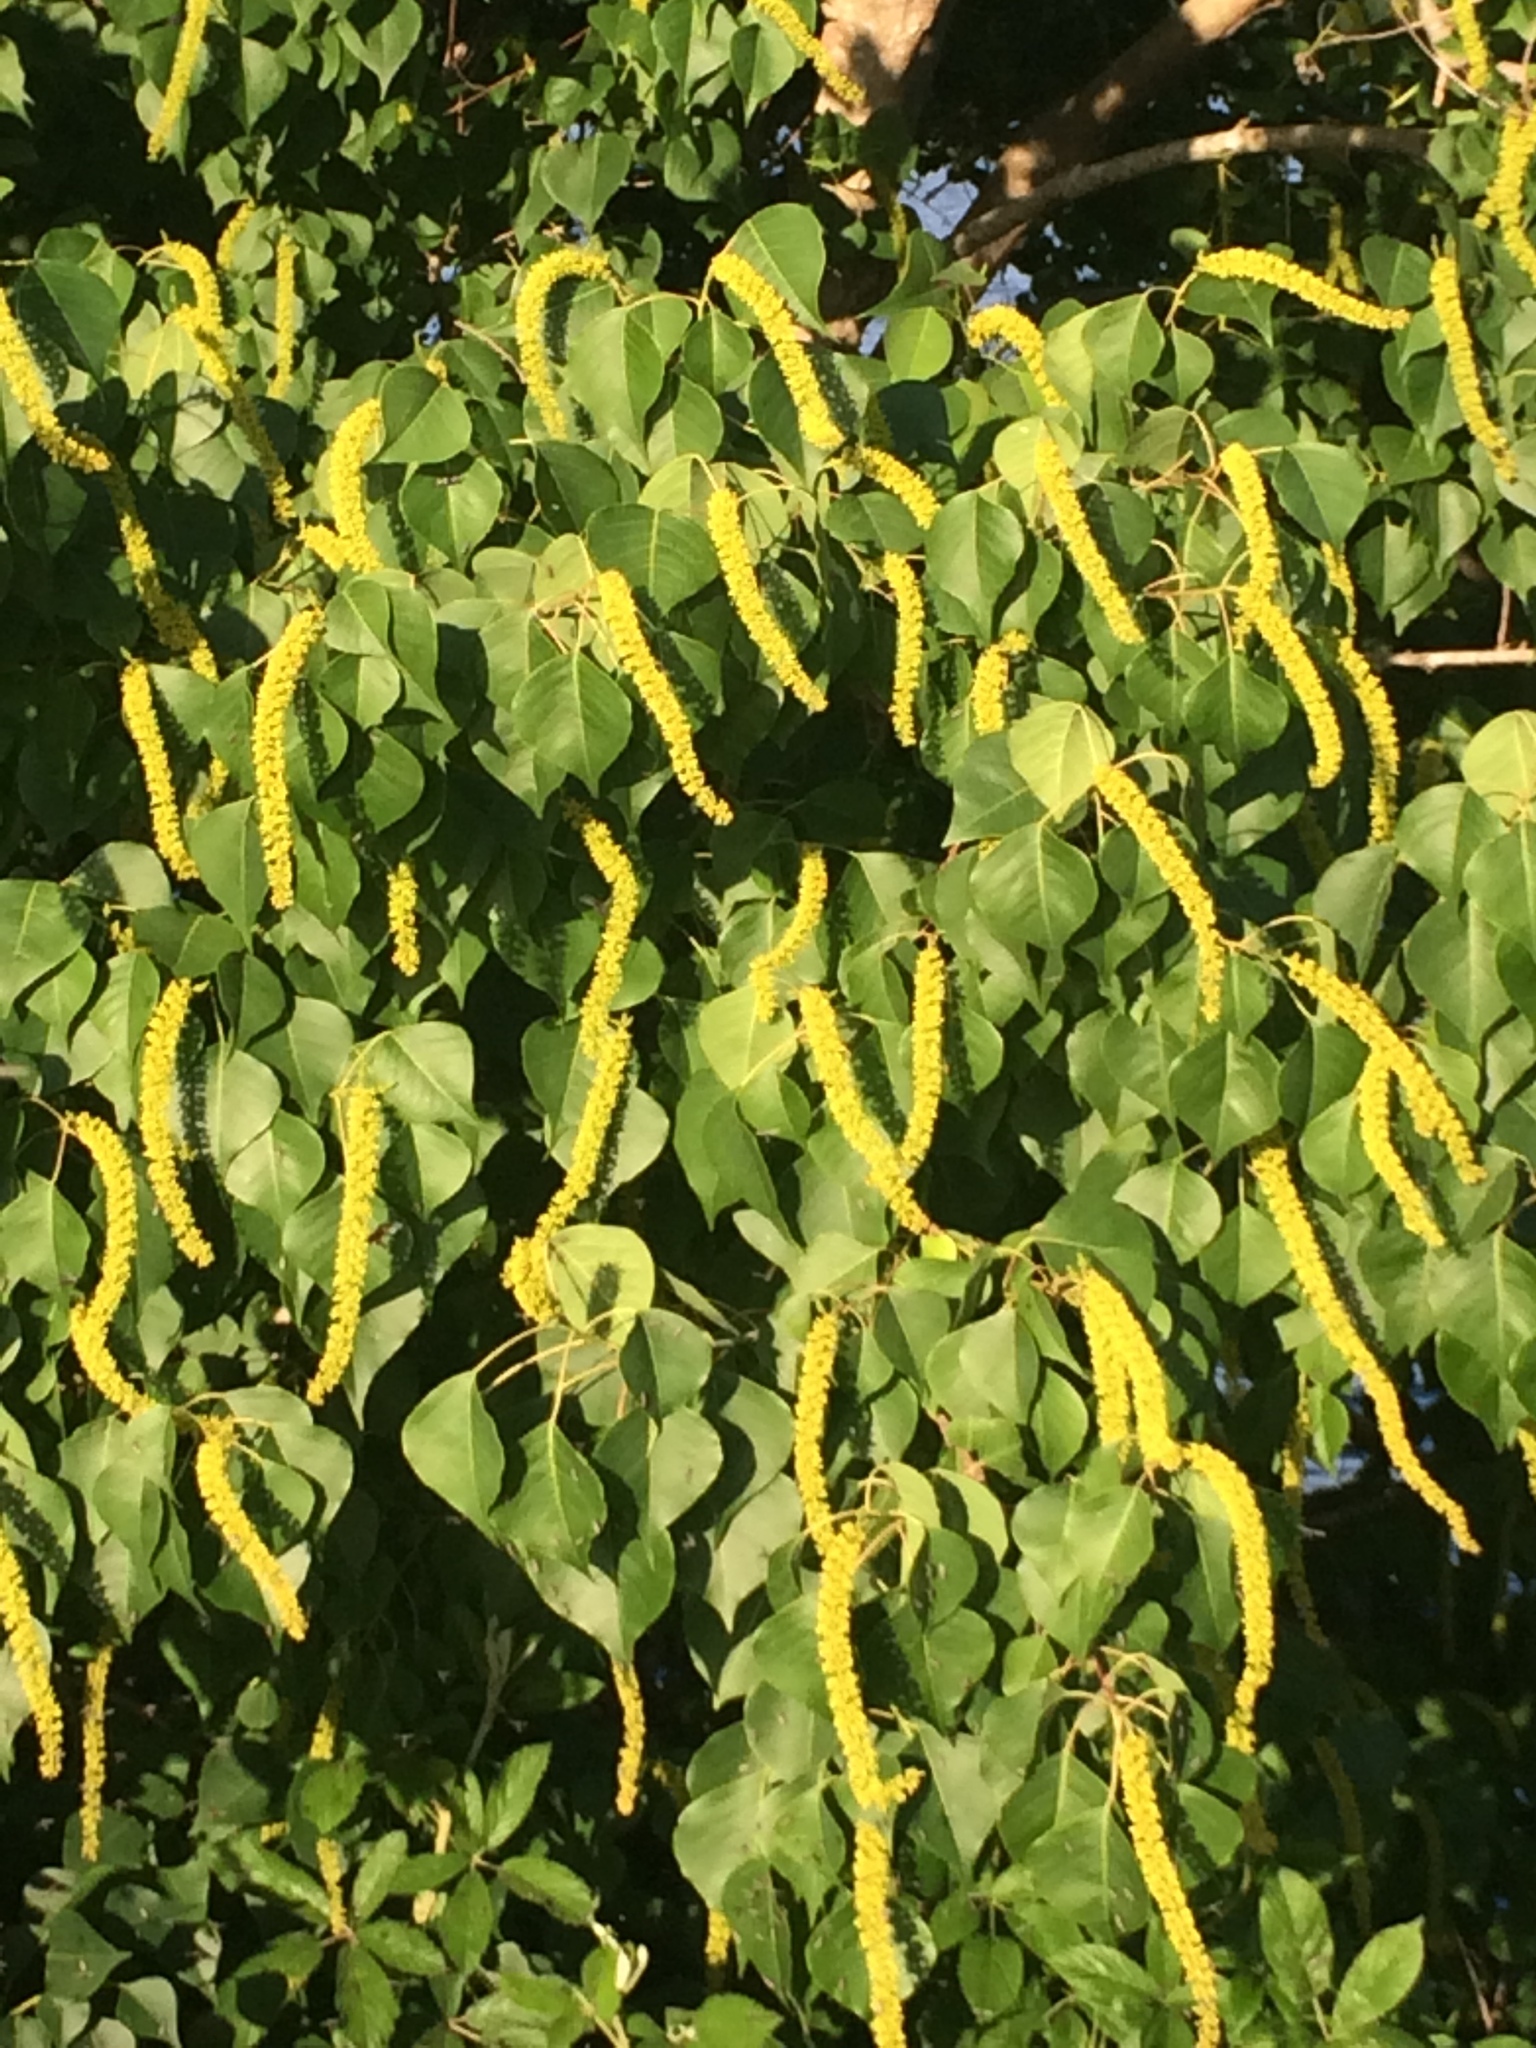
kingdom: Plantae
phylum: Tracheophyta
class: Magnoliopsida
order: Malpighiales
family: Euphorbiaceae
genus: Triadica
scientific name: Triadica sebifera
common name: Chinese tallow
